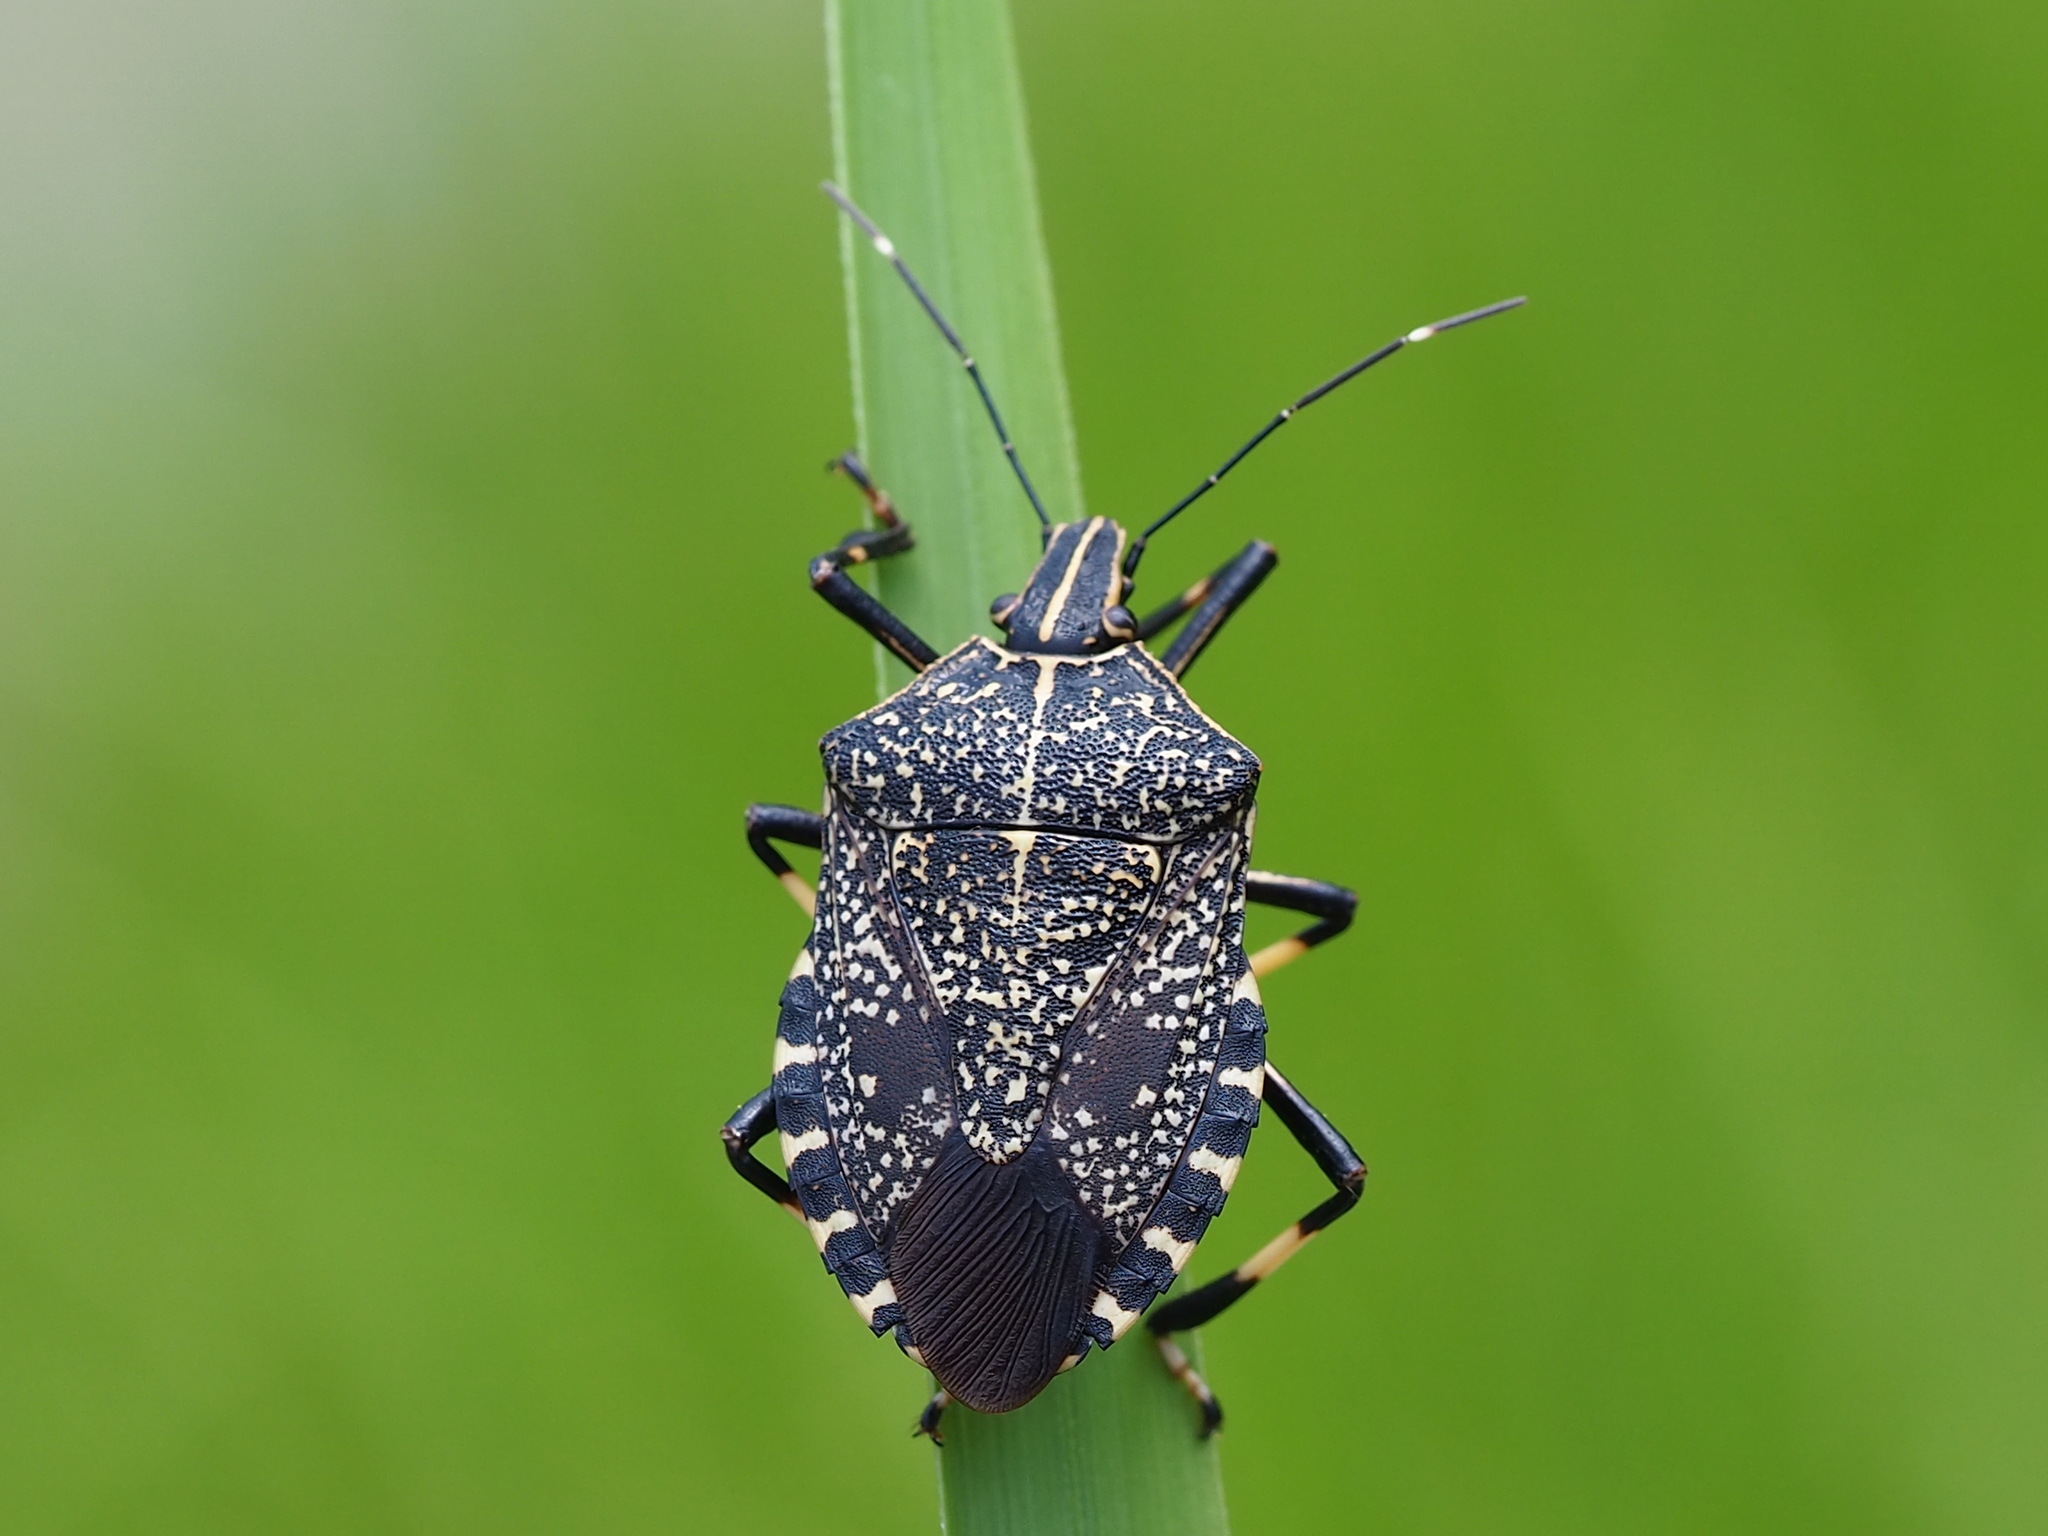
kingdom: Animalia
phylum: Arthropoda
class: Insecta
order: Hemiptera
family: Pentatomidae
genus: Erthesina
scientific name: Erthesina fullo
